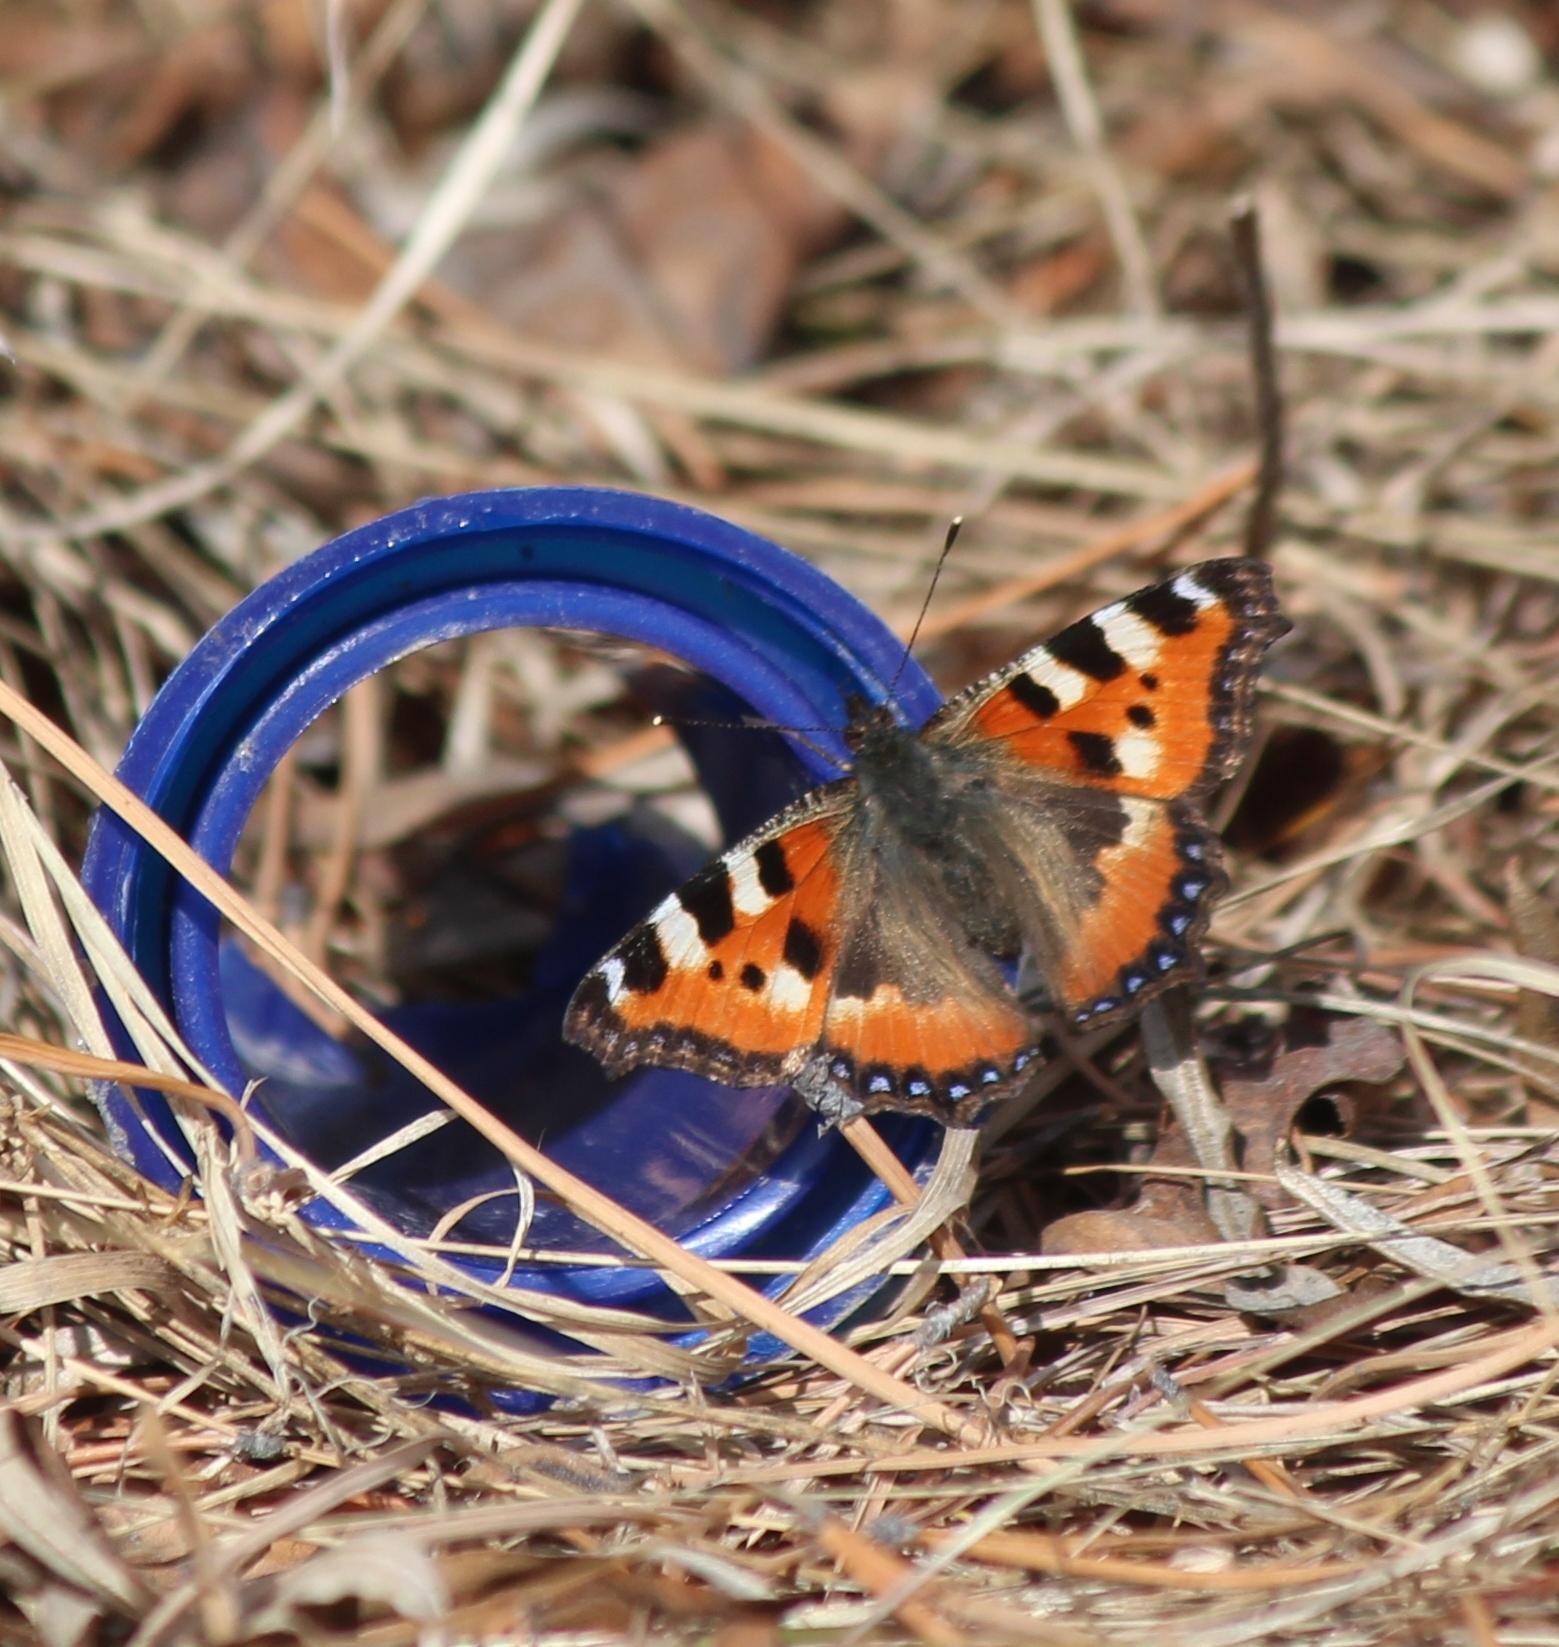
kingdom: Animalia
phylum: Arthropoda
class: Insecta
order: Lepidoptera
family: Nymphalidae
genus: Aglais
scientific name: Aglais urticae
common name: Small tortoiseshell
